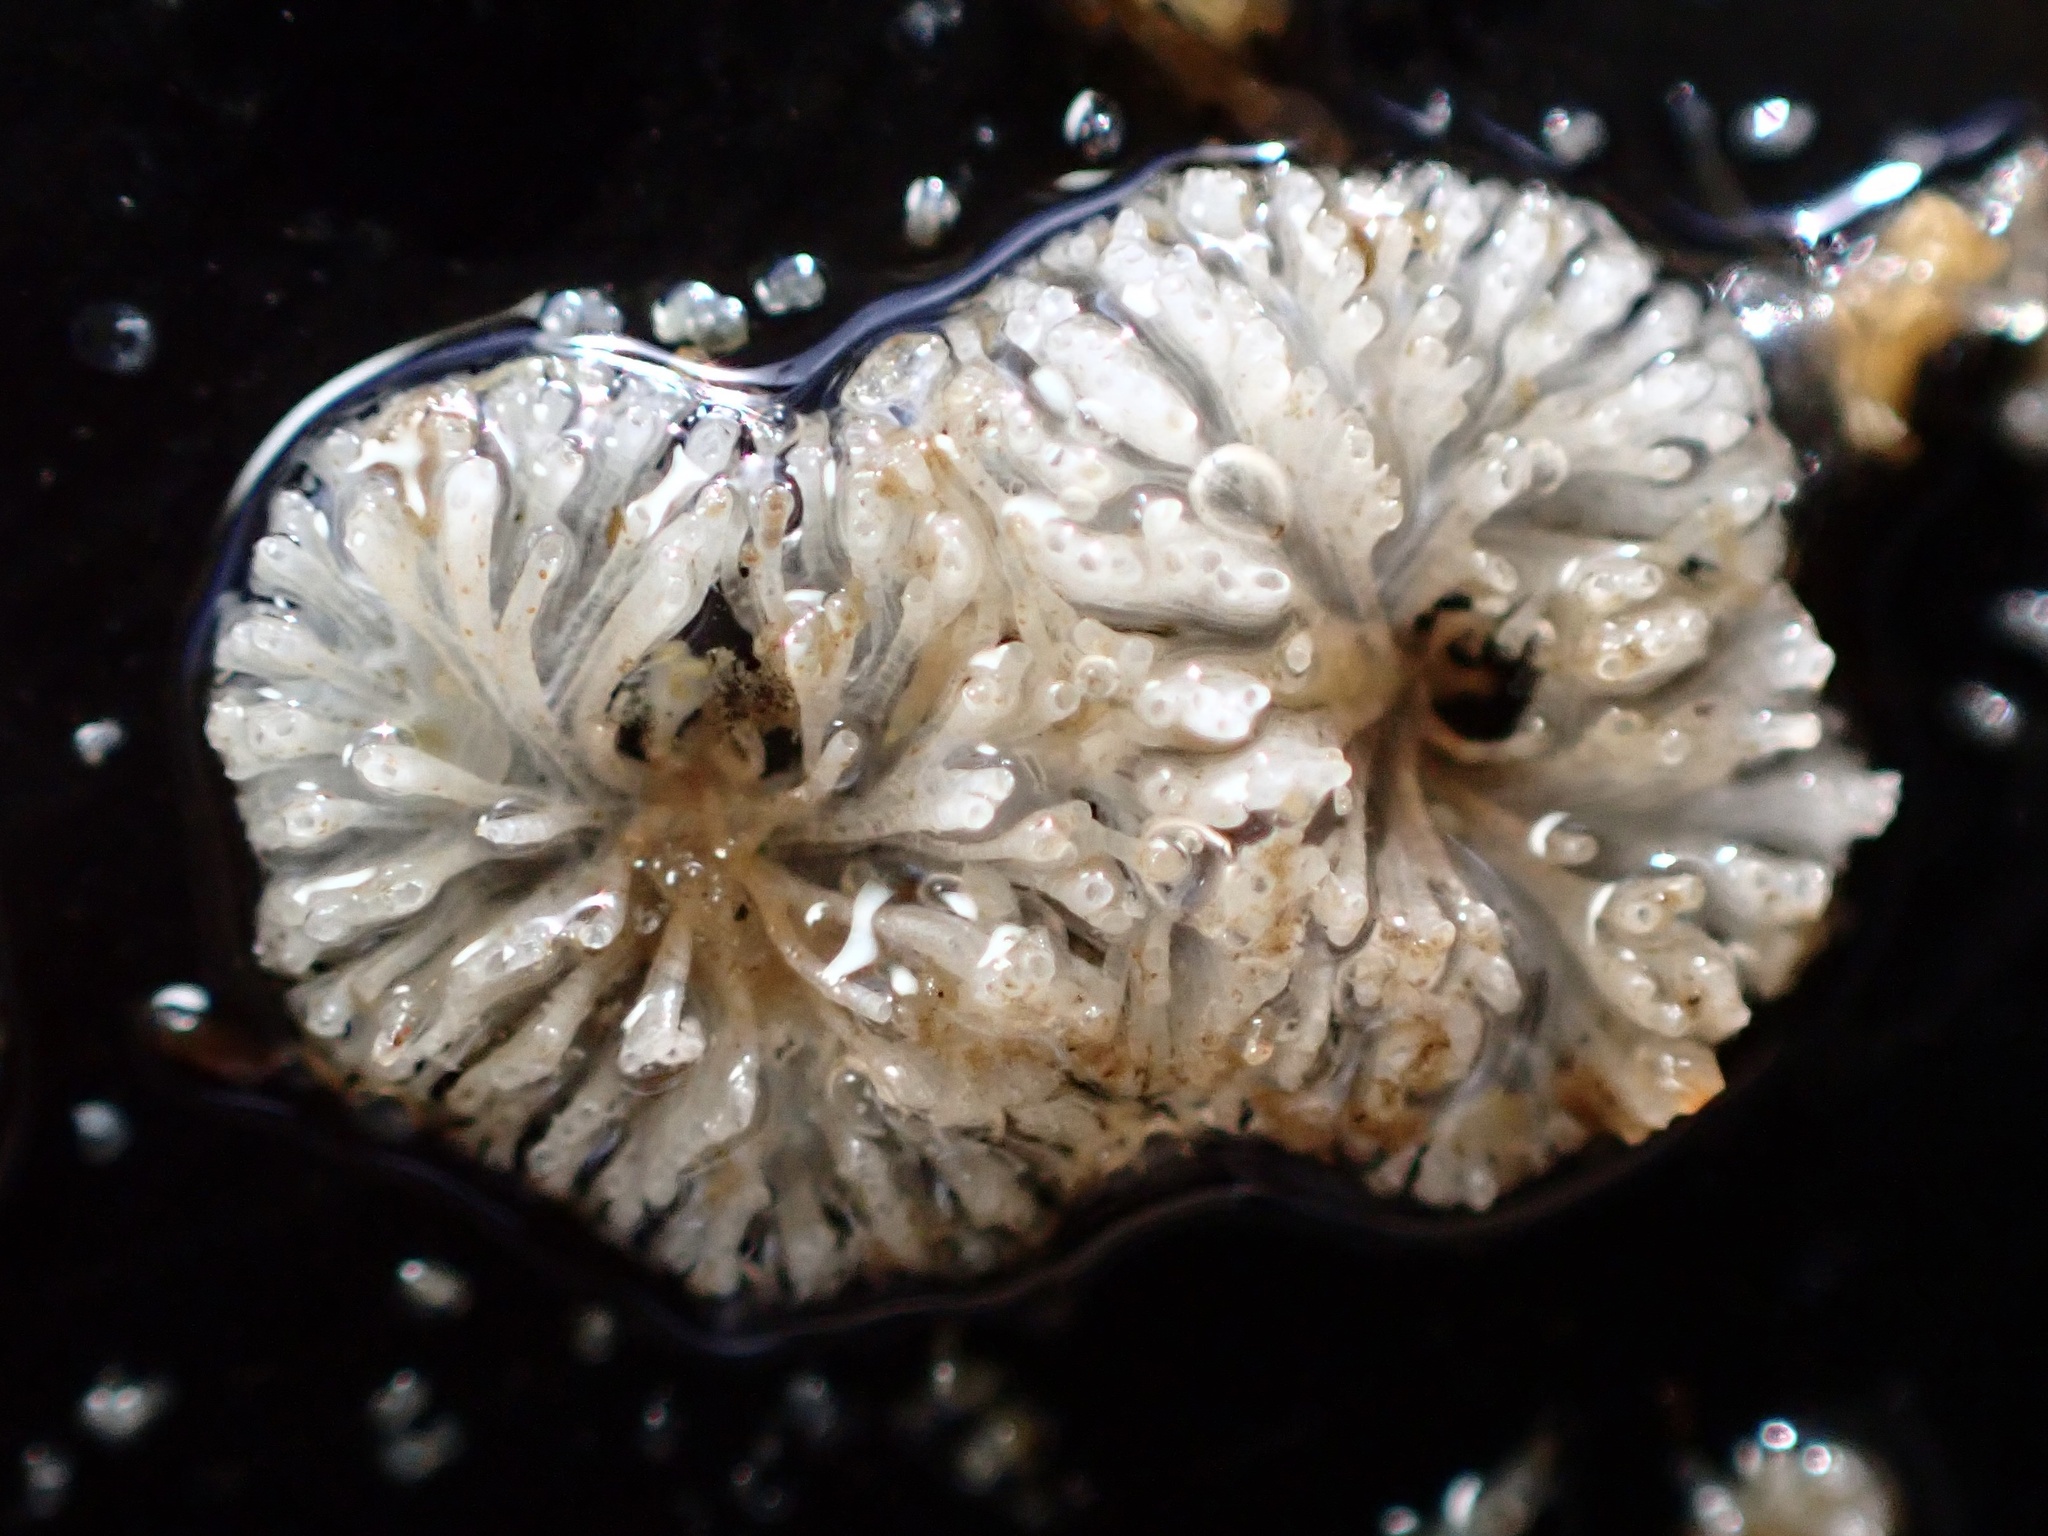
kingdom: Animalia
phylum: Bryozoa
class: Stenolaemata
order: Cyclostomatida
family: Lichenoporidae
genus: Patinella
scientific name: Patinella radiata
